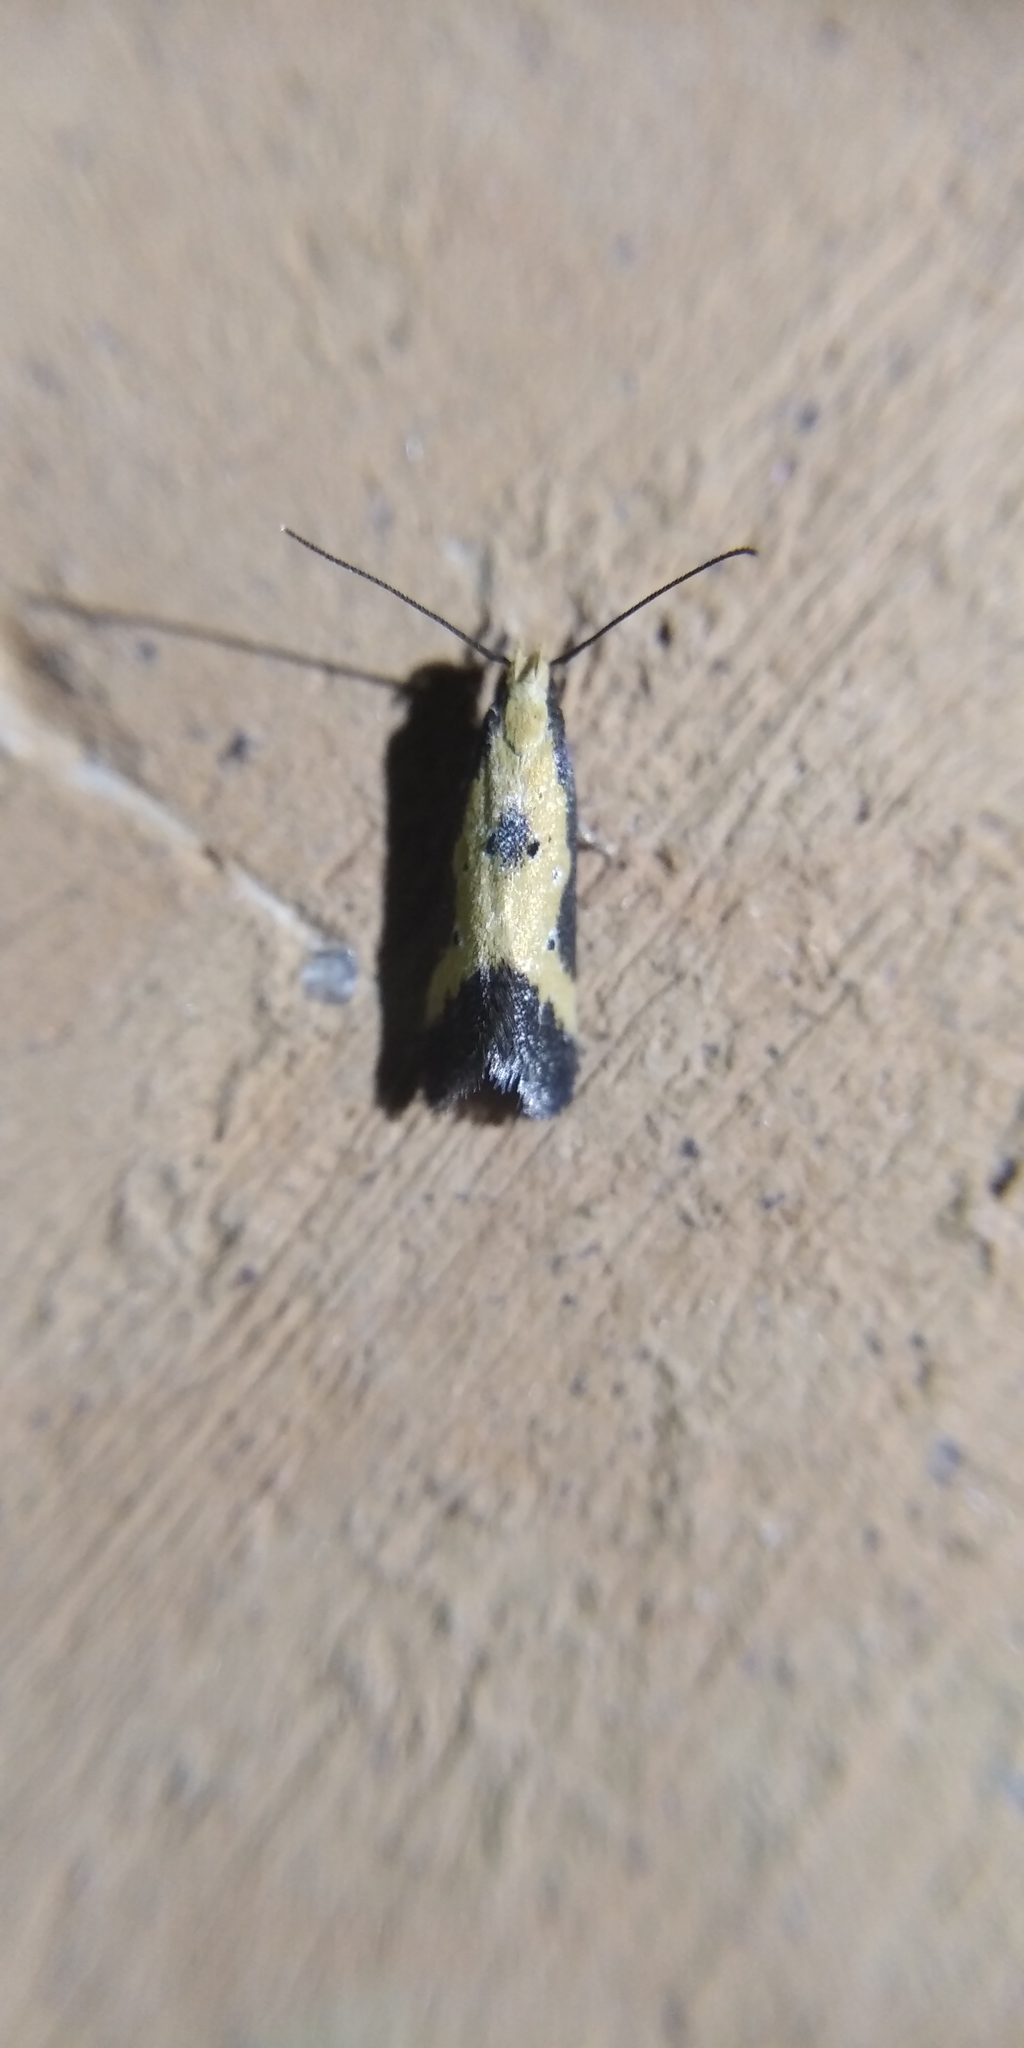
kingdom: Animalia
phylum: Arthropoda
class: Insecta
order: Lepidoptera
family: Gelechiidae
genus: Brachmia
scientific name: Brachmia dimidiella
